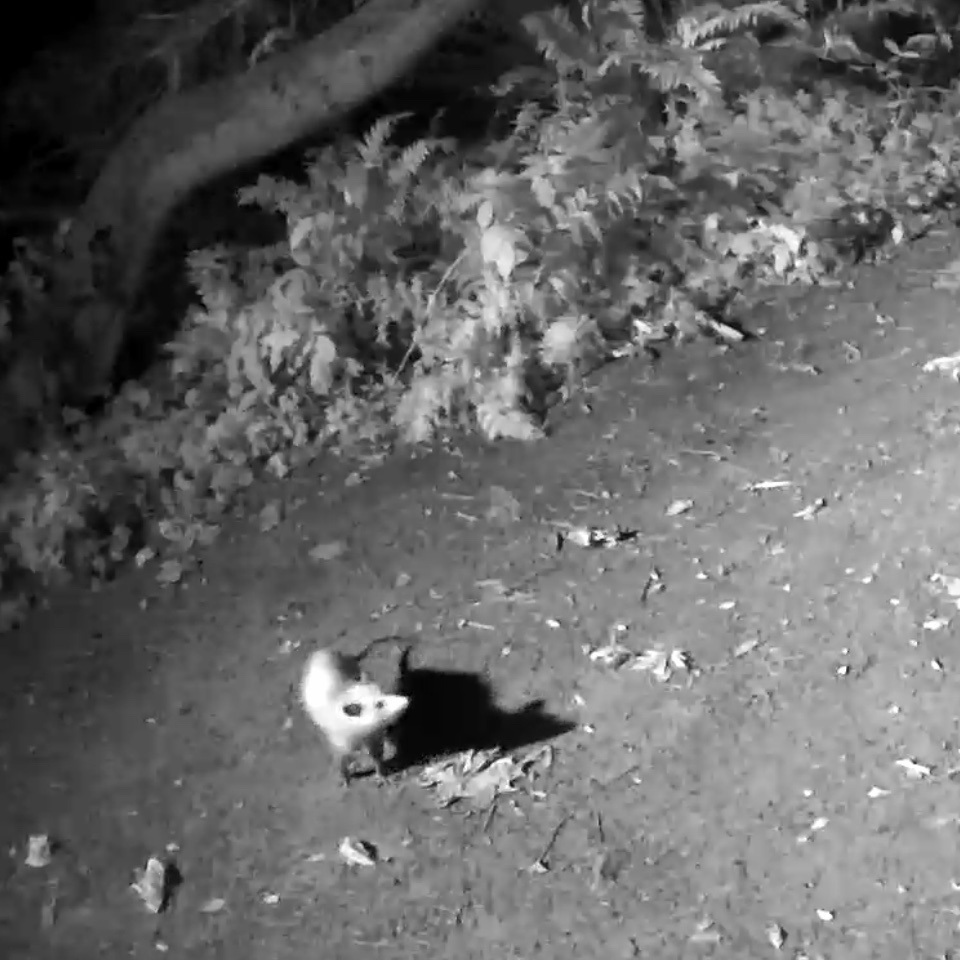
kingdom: Animalia
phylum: Chordata
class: Mammalia
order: Didelphimorphia
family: Didelphidae
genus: Didelphis
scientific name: Didelphis virginiana
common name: Virginia opossum
